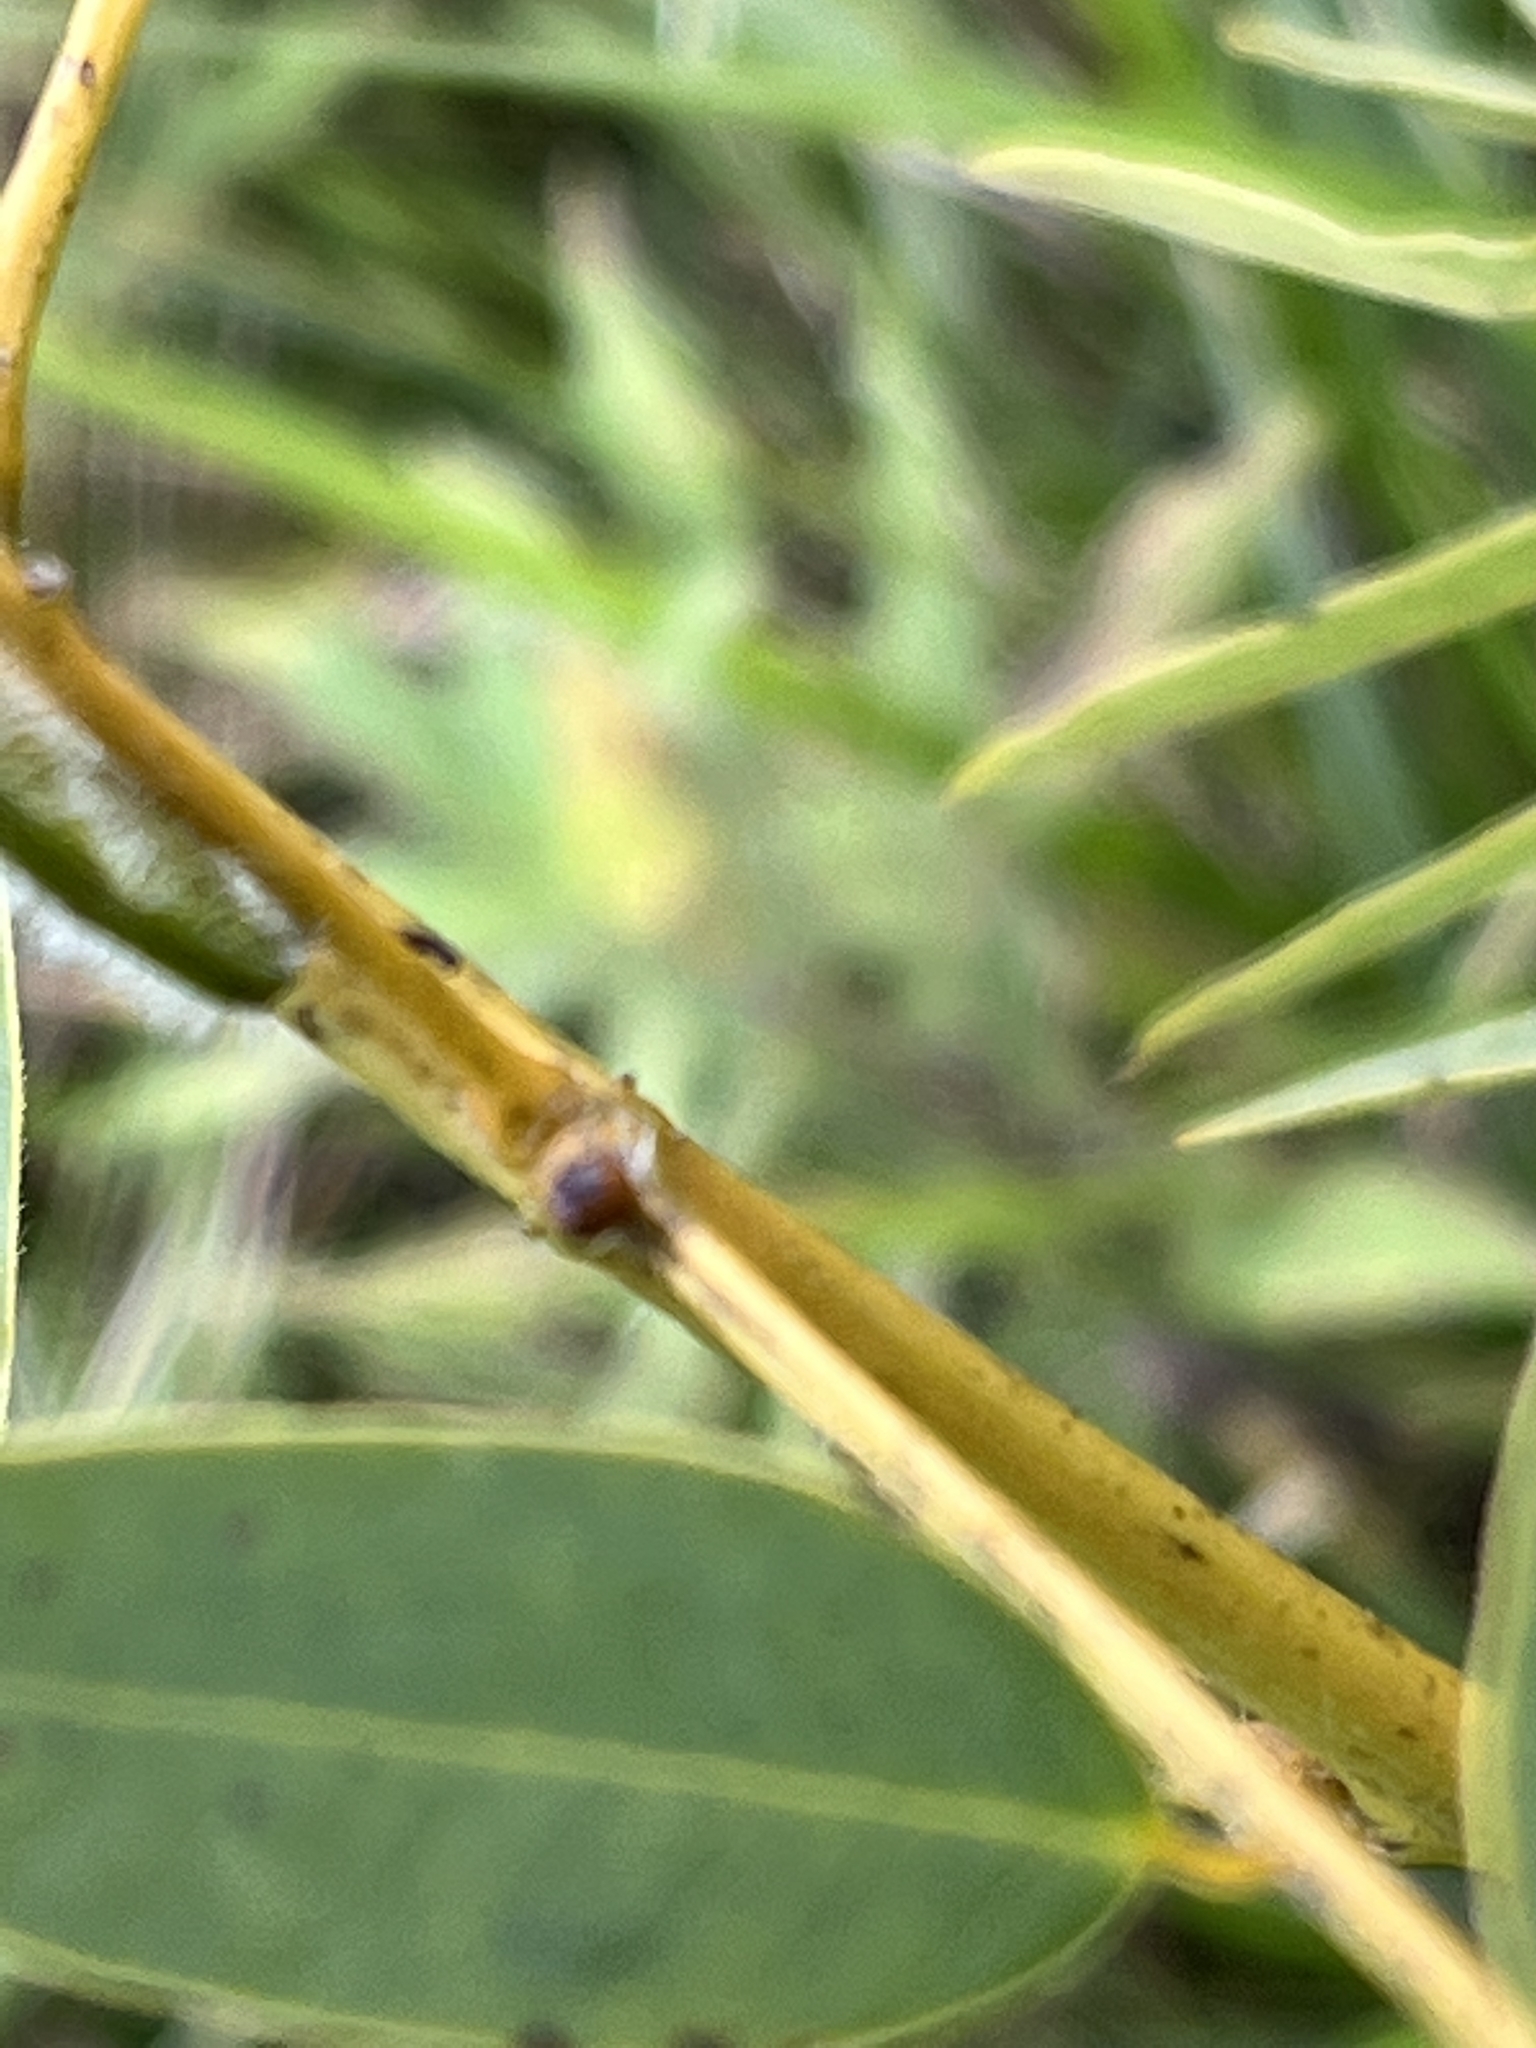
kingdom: Plantae
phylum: Tracheophyta
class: Magnoliopsida
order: Fabales
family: Fabaceae
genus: Senna
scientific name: Senna hebecarpa
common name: Wild senna
